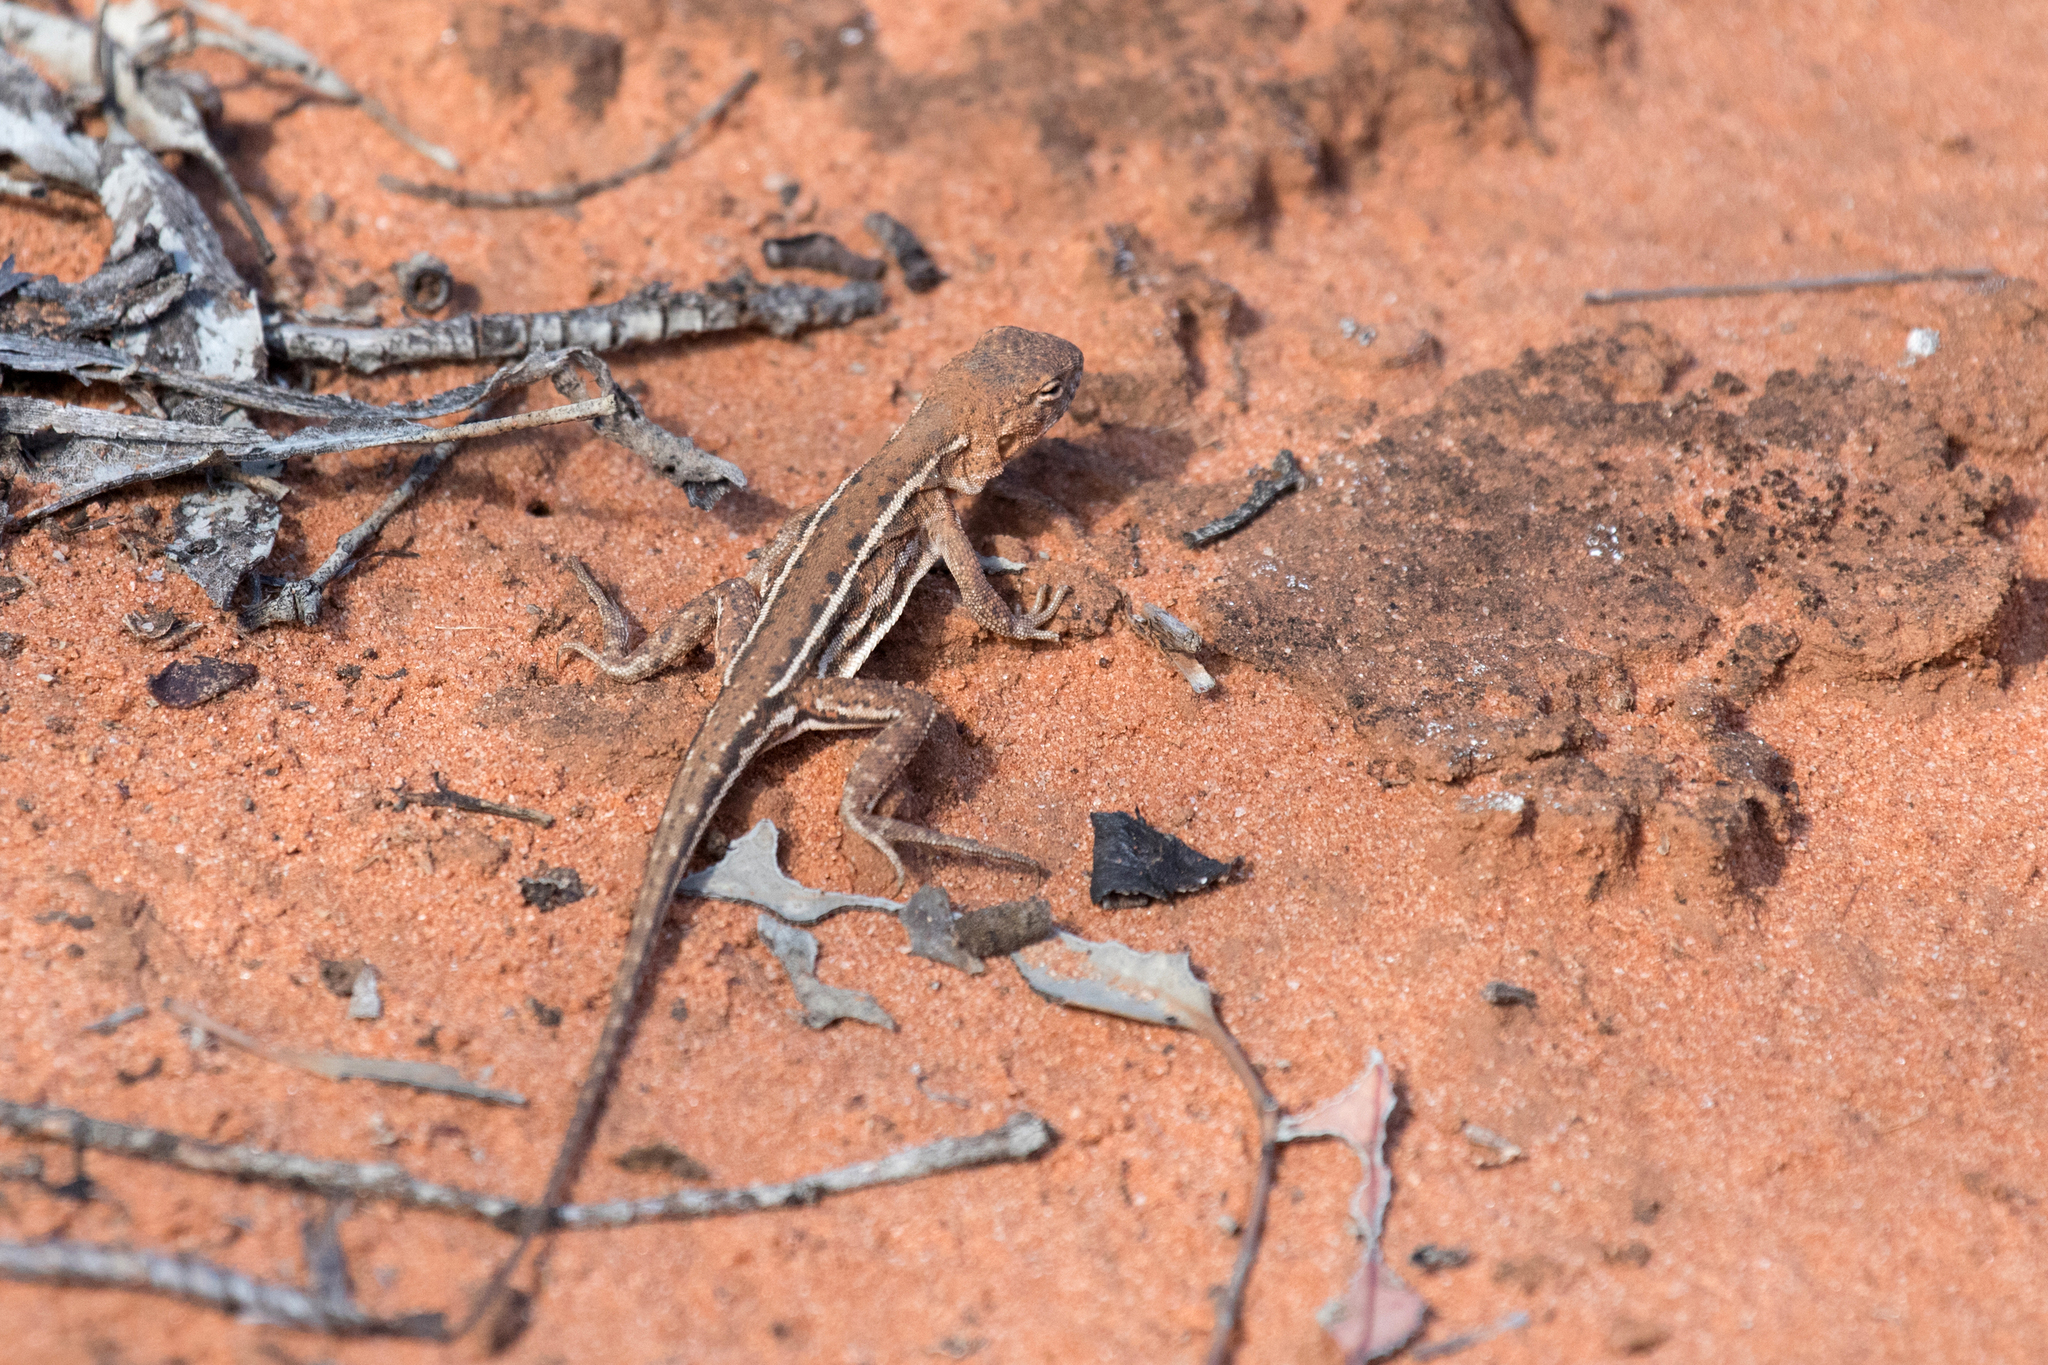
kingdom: Animalia
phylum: Chordata
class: Squamata
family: Agamidae
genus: Ctenophorus
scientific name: Ctenophorus spinodomus
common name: Eastern mallee dragon
